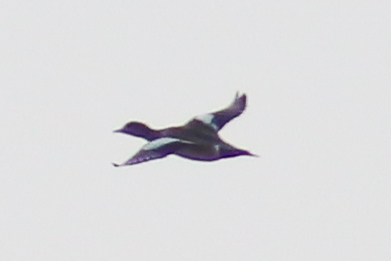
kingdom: Animalia
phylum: Chordata
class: Aves
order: Anseriformes
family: Anatidae
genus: Mareca
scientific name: Mareca penelope
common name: Eurasian wigeon
